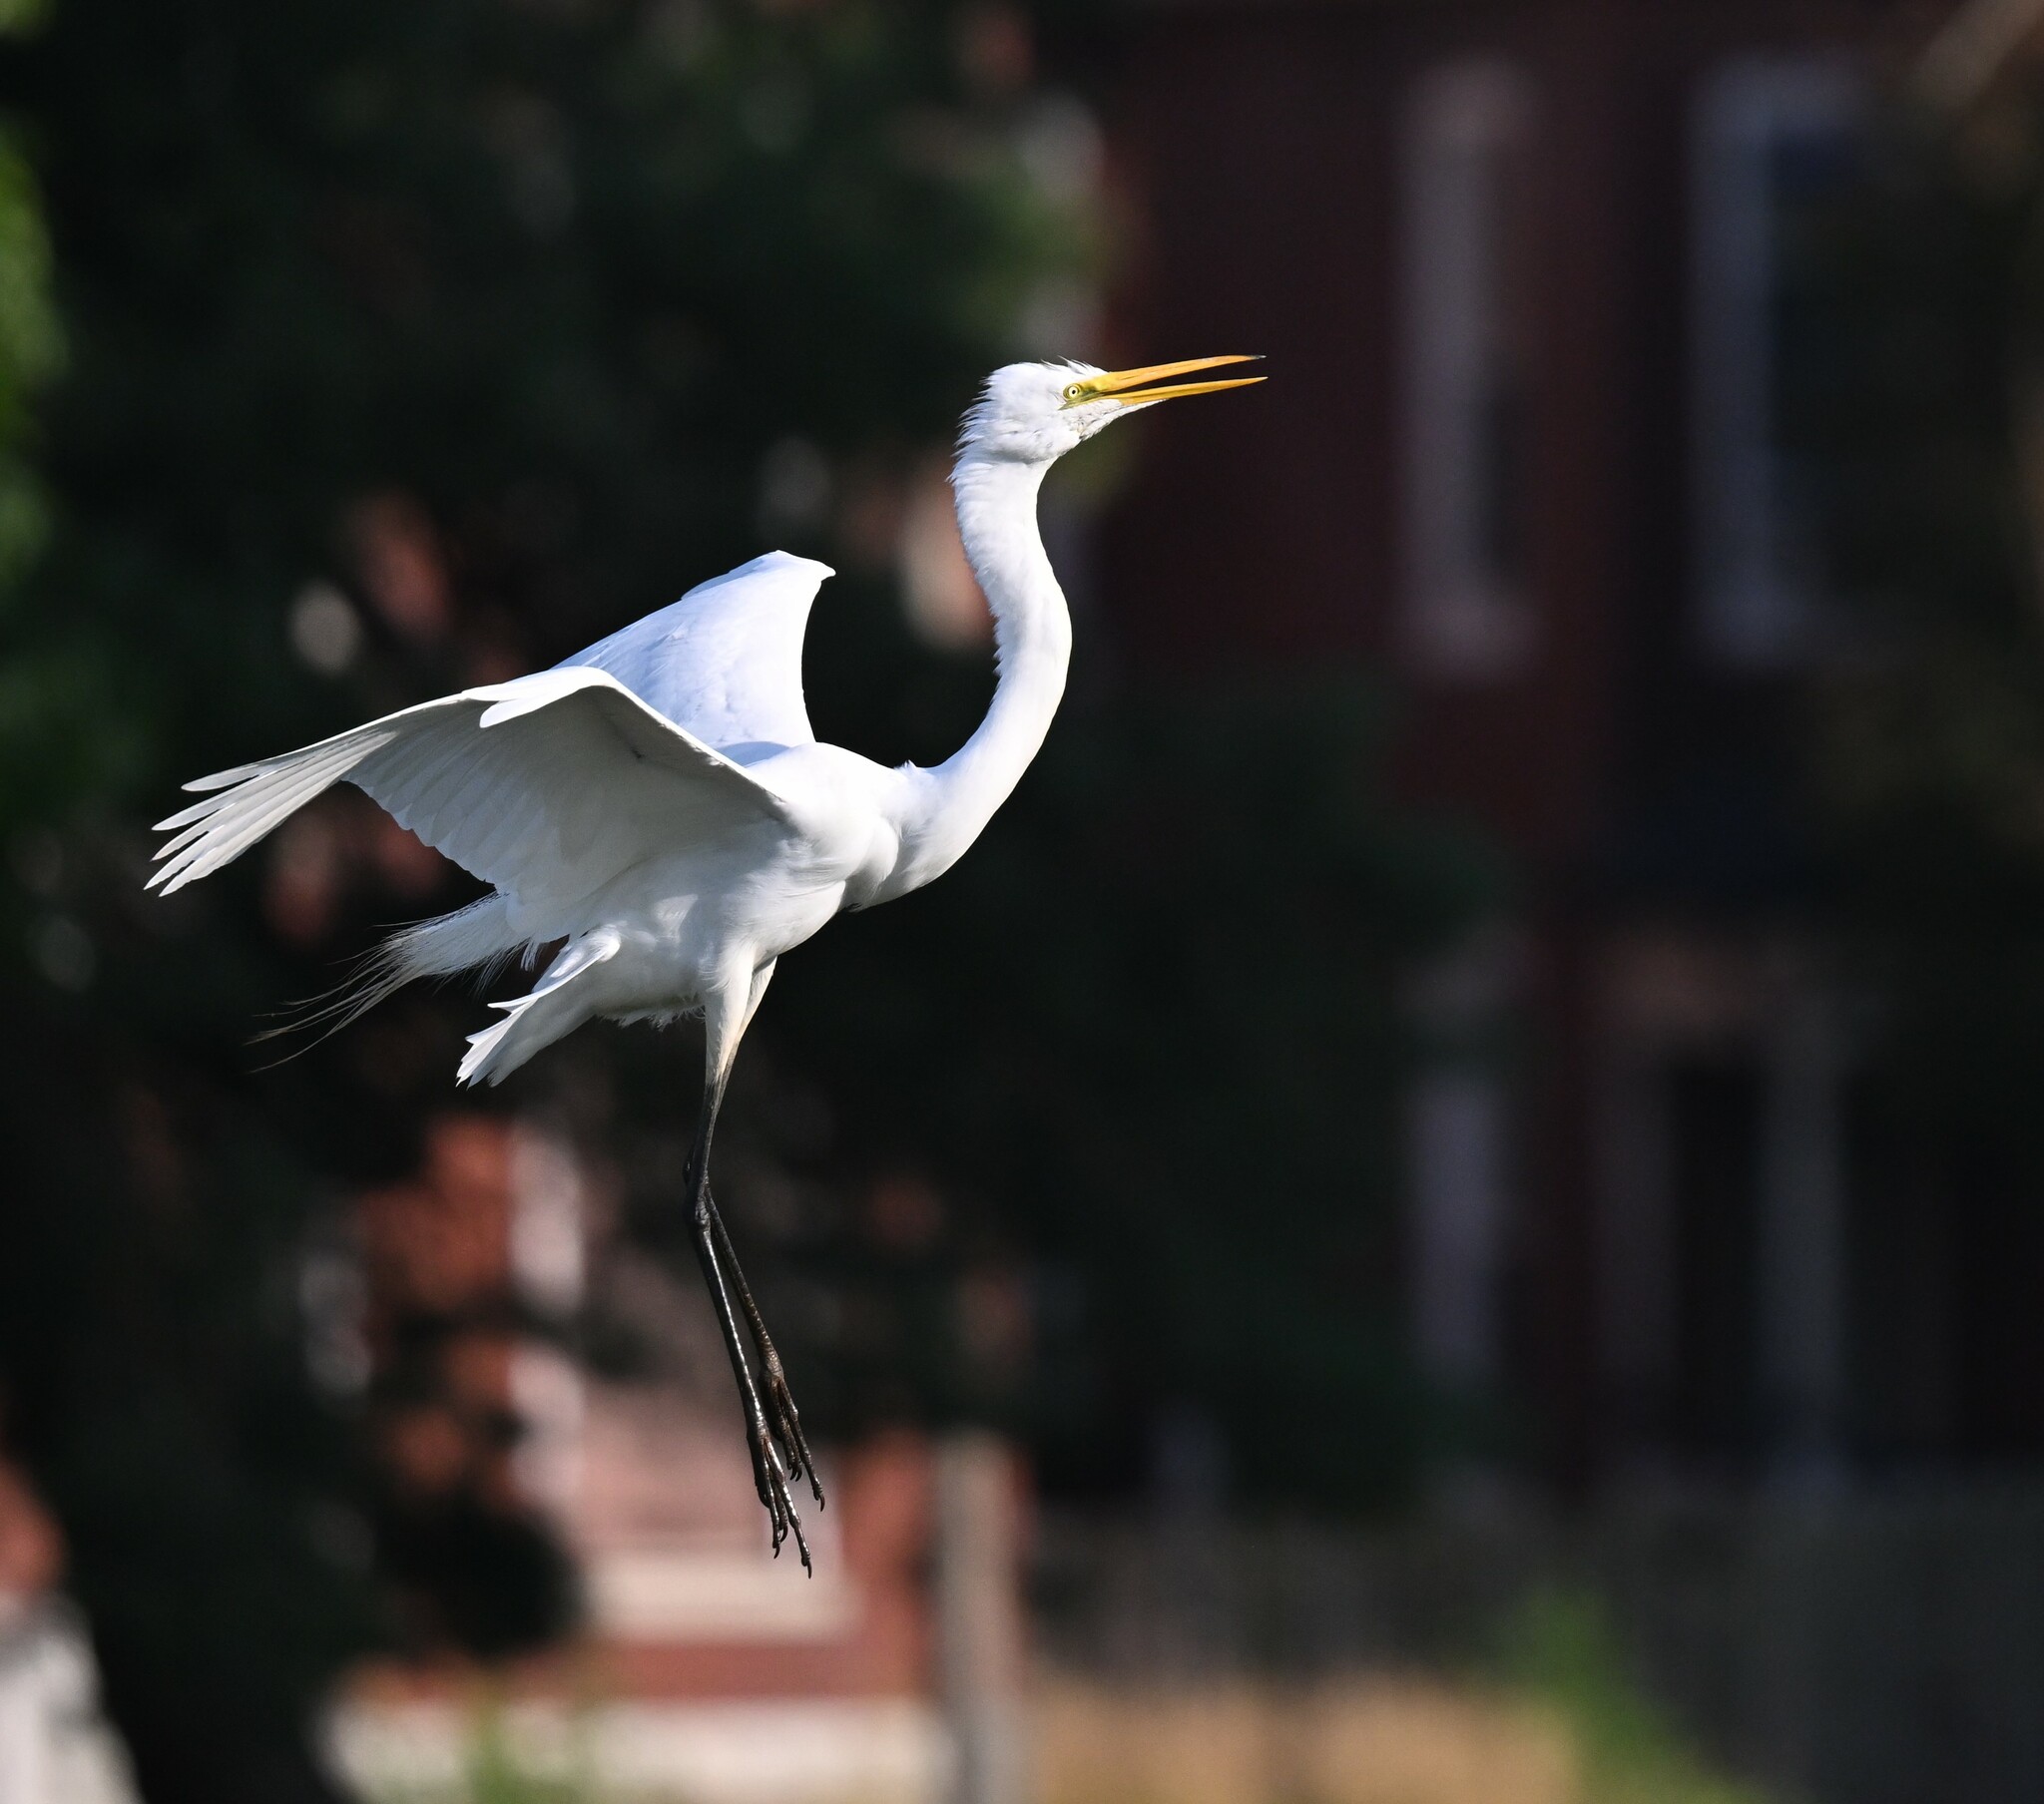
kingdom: Animalia
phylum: Chordata
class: Aves
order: Pelecaniformes
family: Ardeidae
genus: Ardea
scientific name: Ardea alba
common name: Great egret
